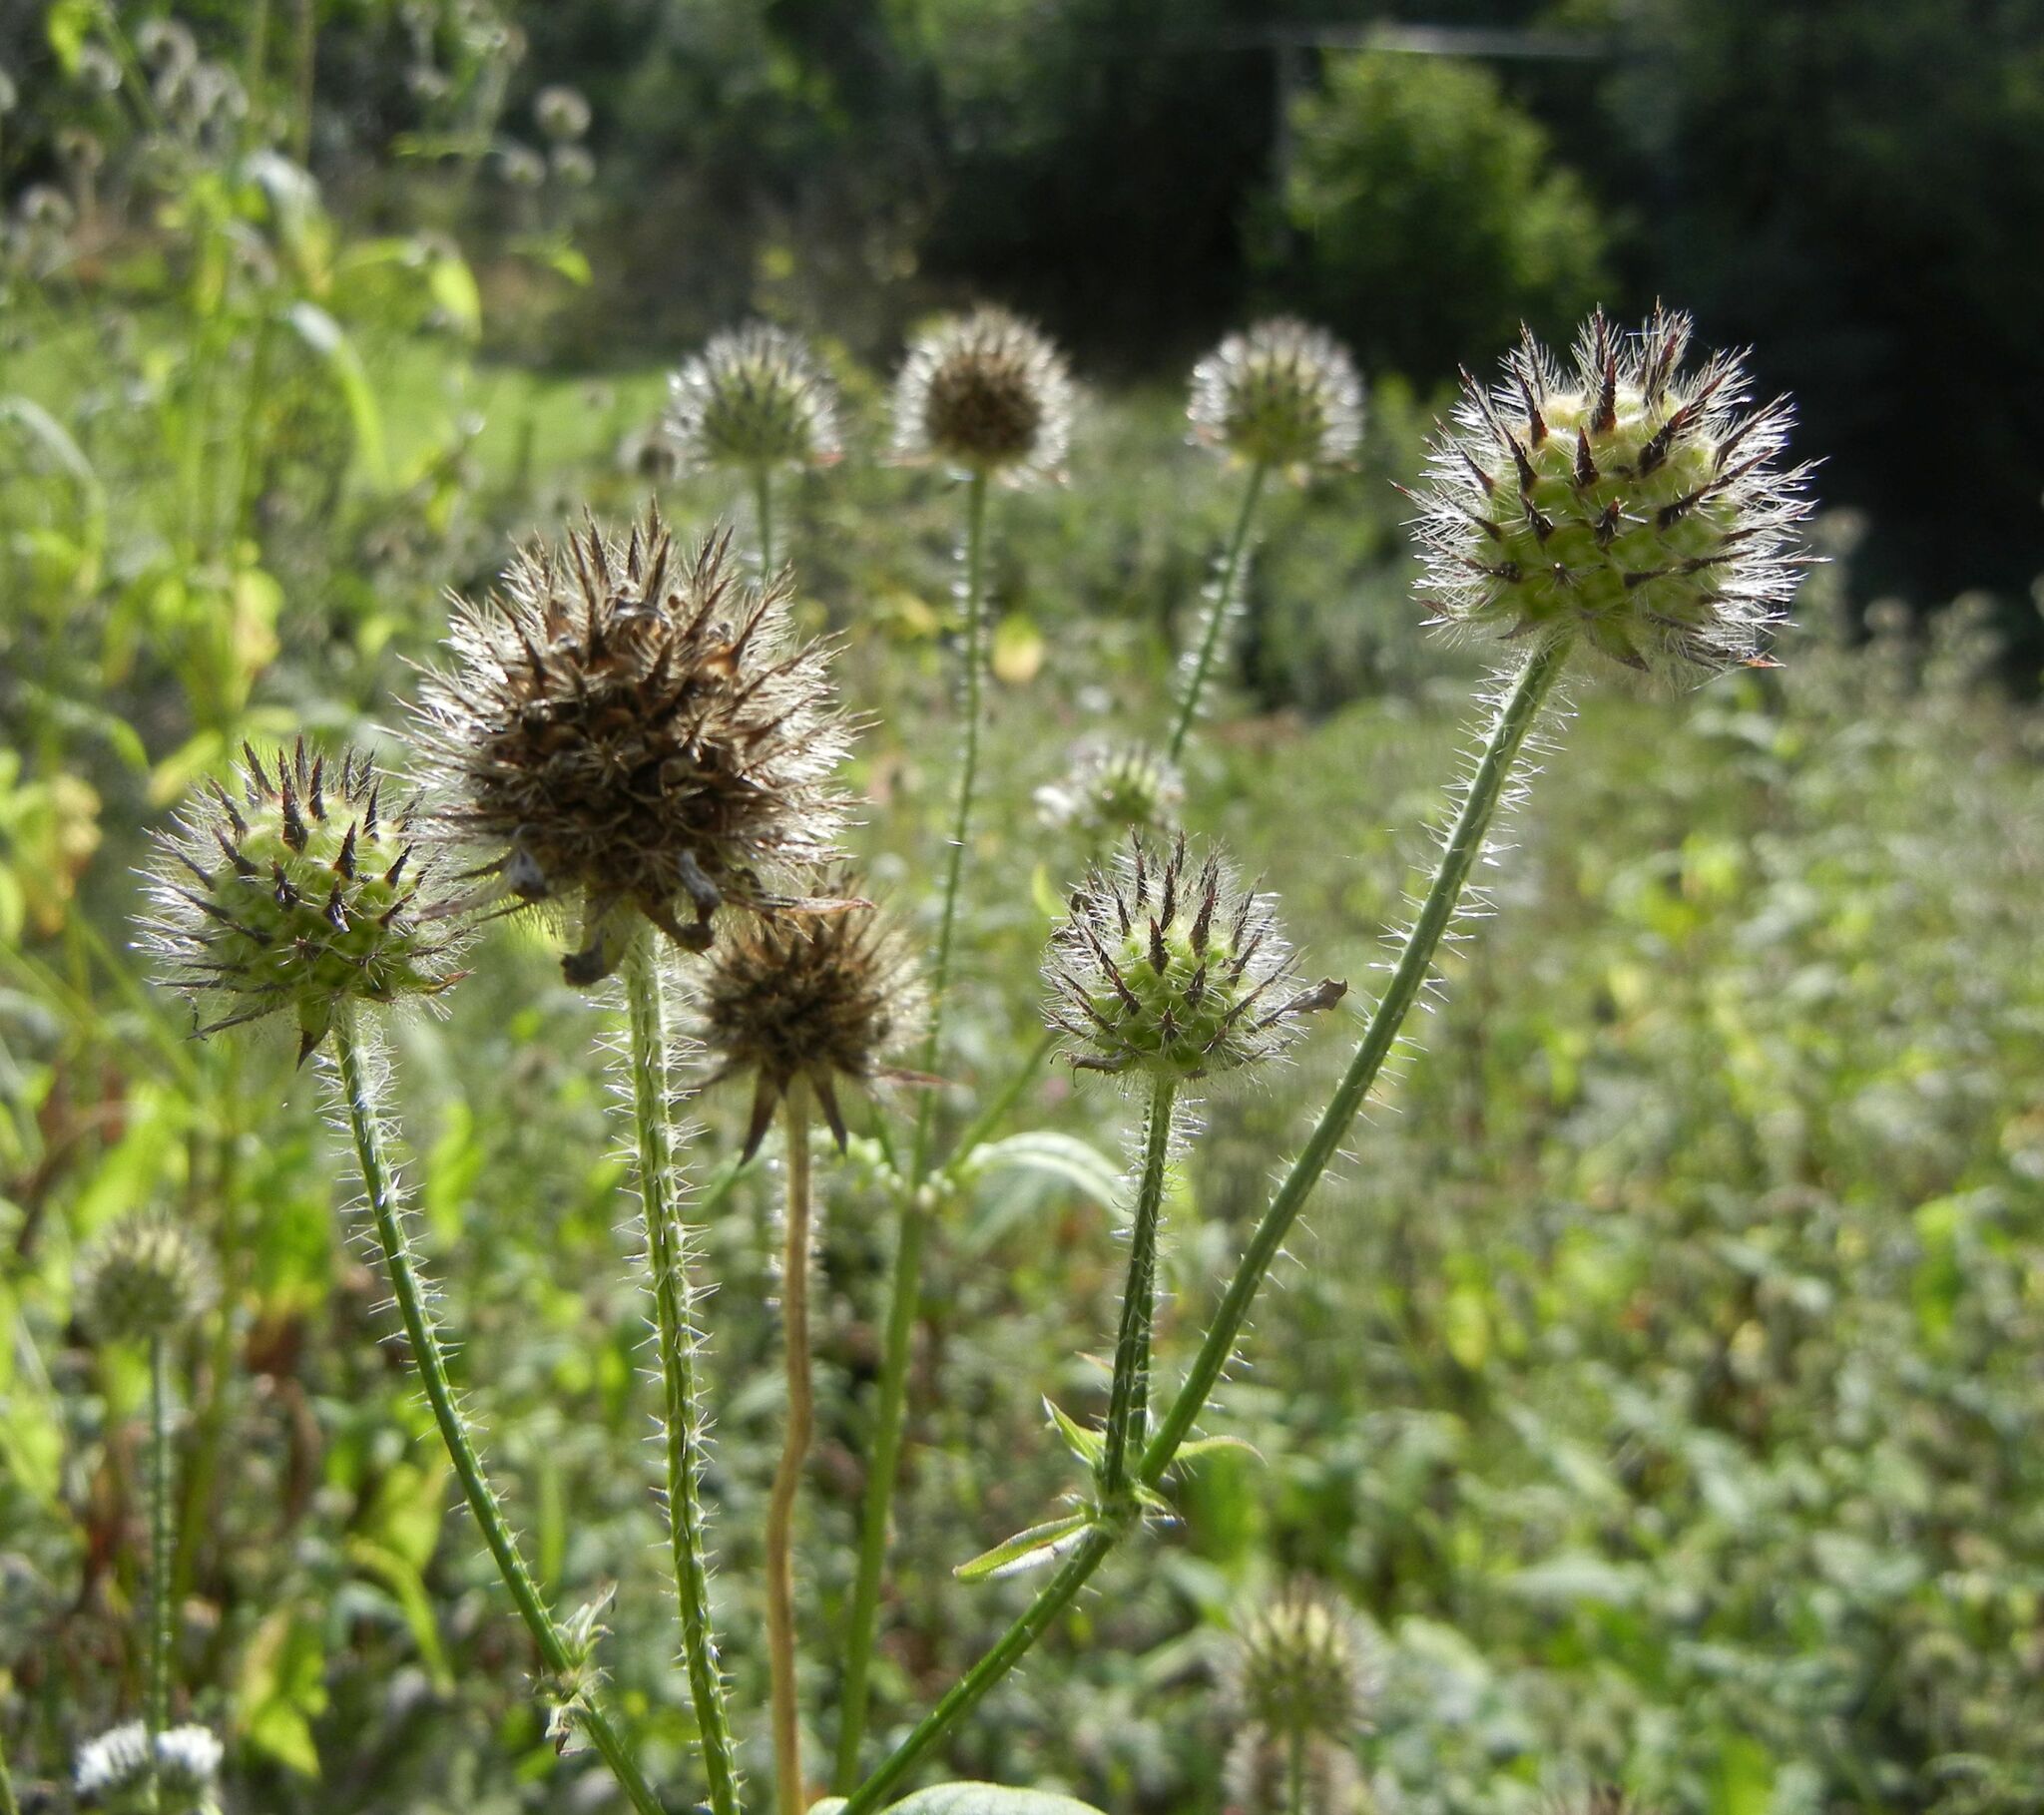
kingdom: Plantae
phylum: Tracheophyta
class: Magnoliopsida
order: Dipsacales
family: Caprifoliaceae
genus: Dipsacus
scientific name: Dipsacus pilosus
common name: Small teasel
